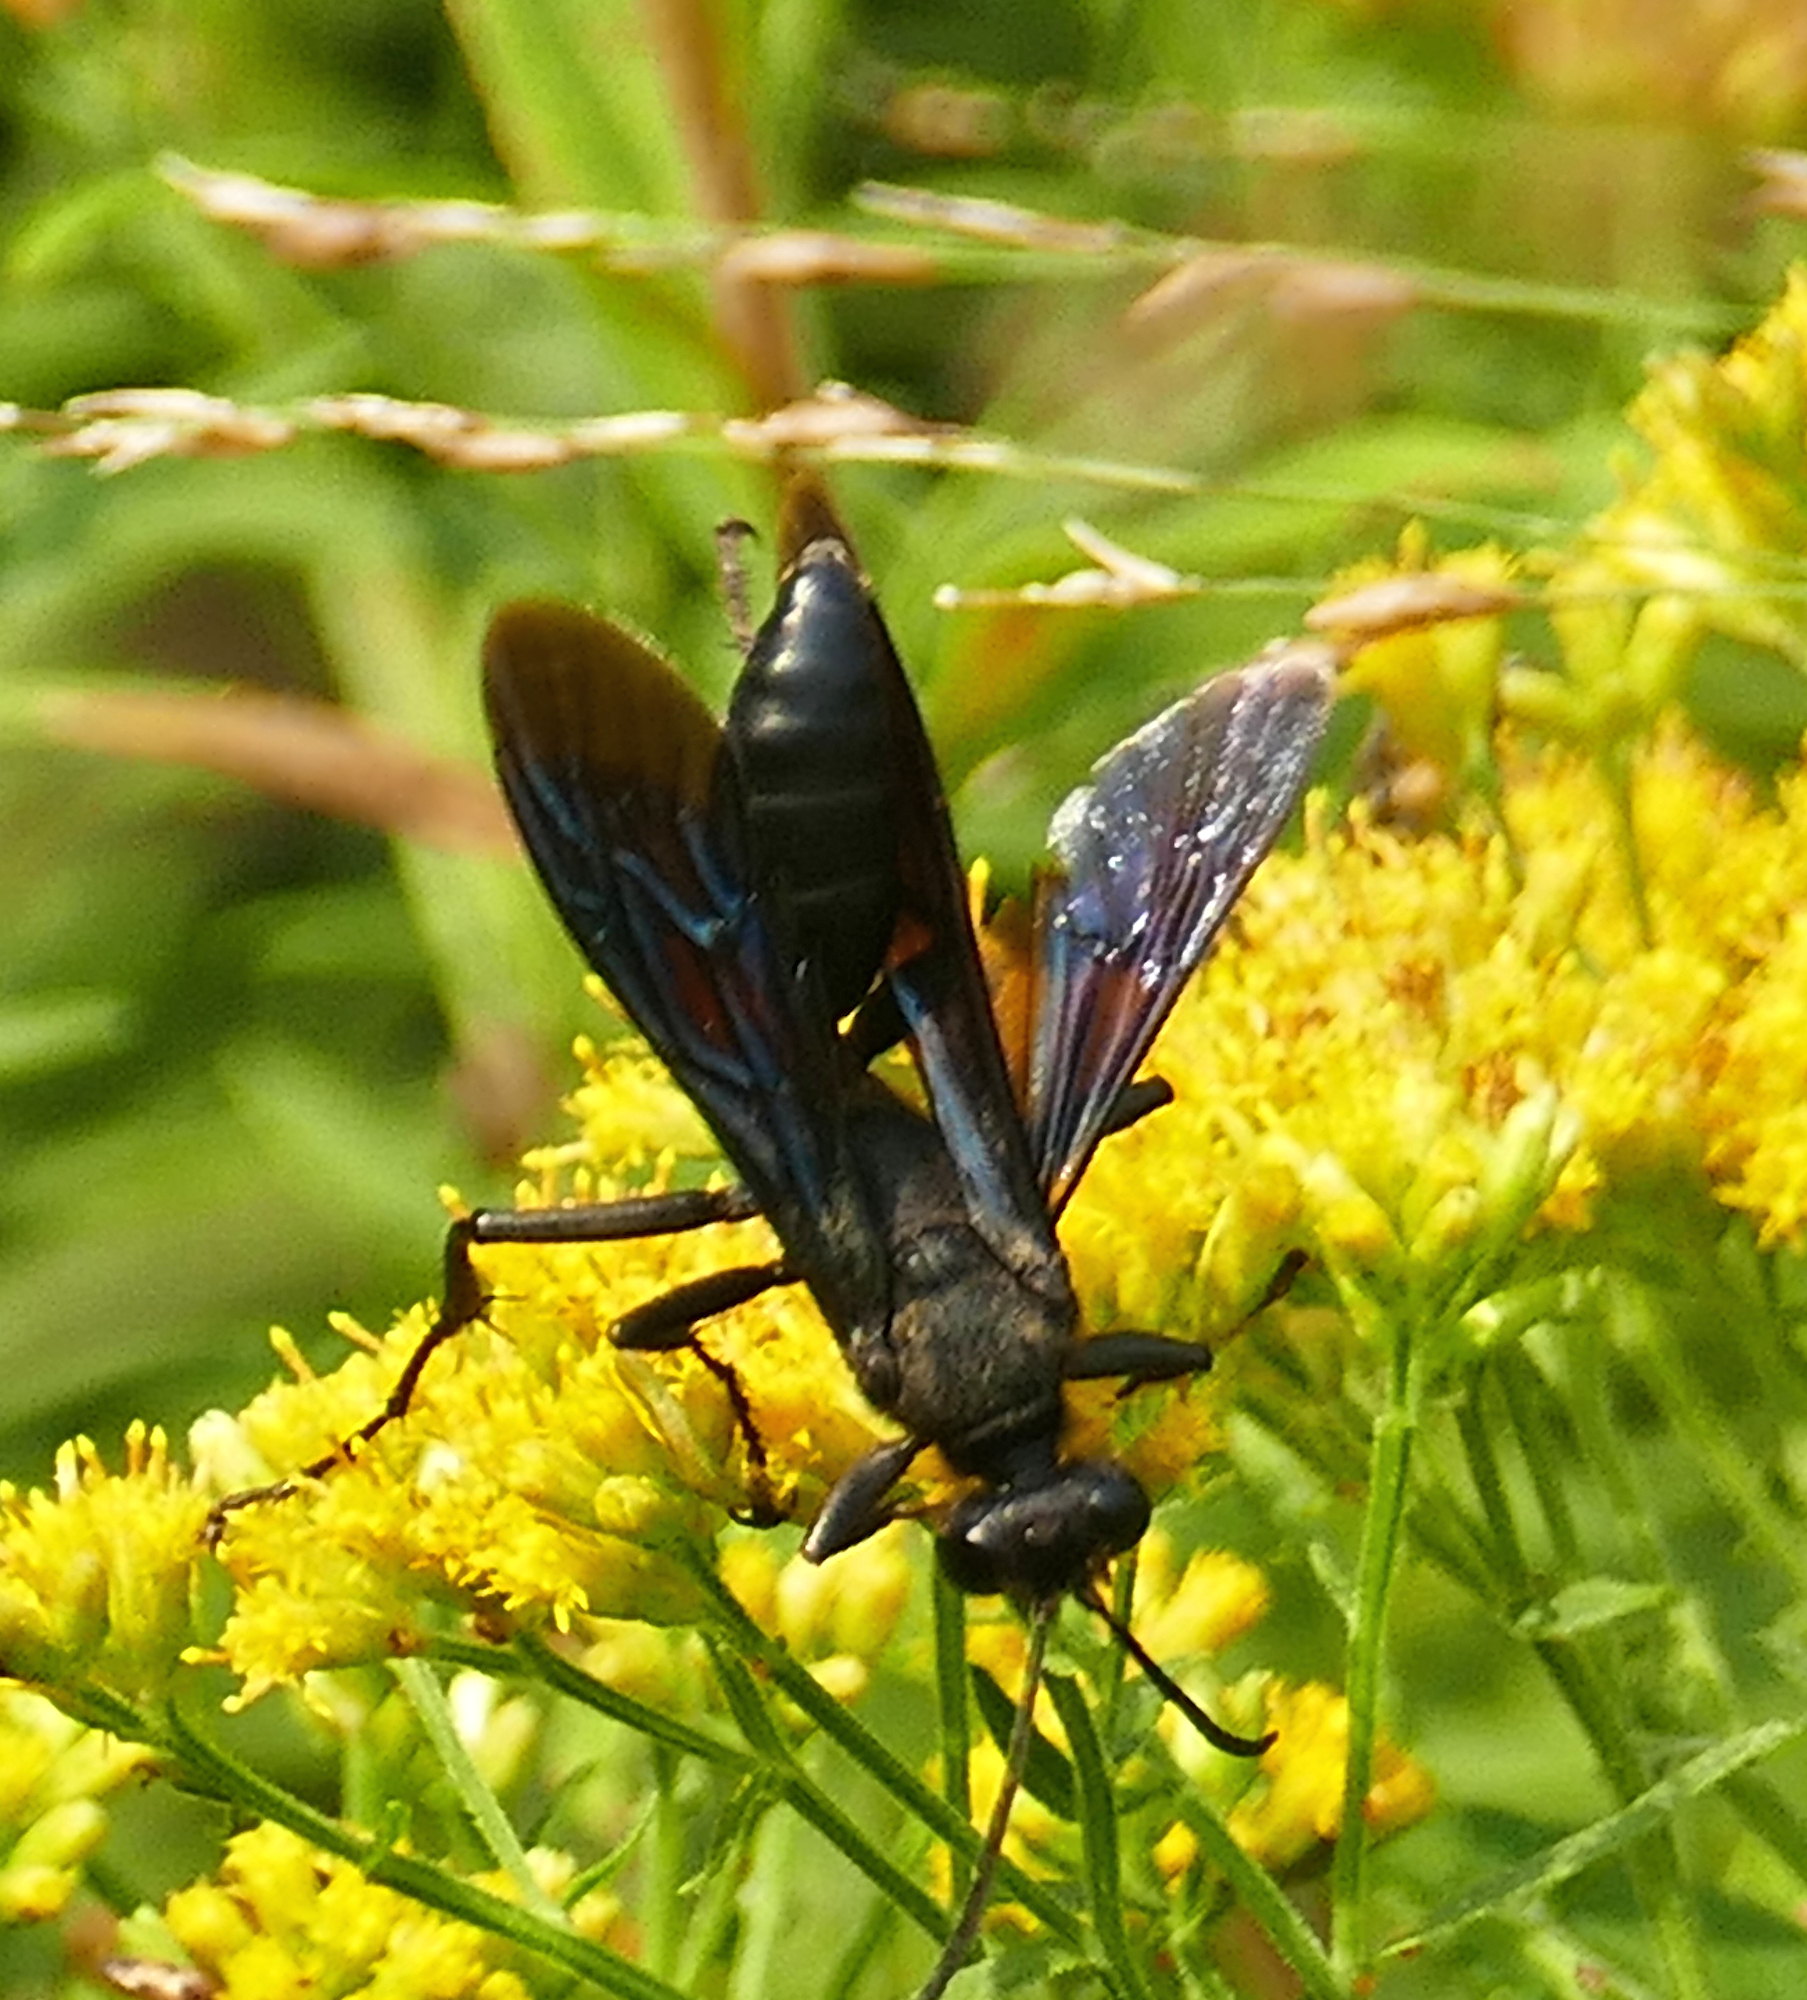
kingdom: Animalia
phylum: Arthropoda
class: Insecta
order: Hymenoptera
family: Sphecidae
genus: Sphex
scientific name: Sphex pensylvanicus
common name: Great black digger wasp
